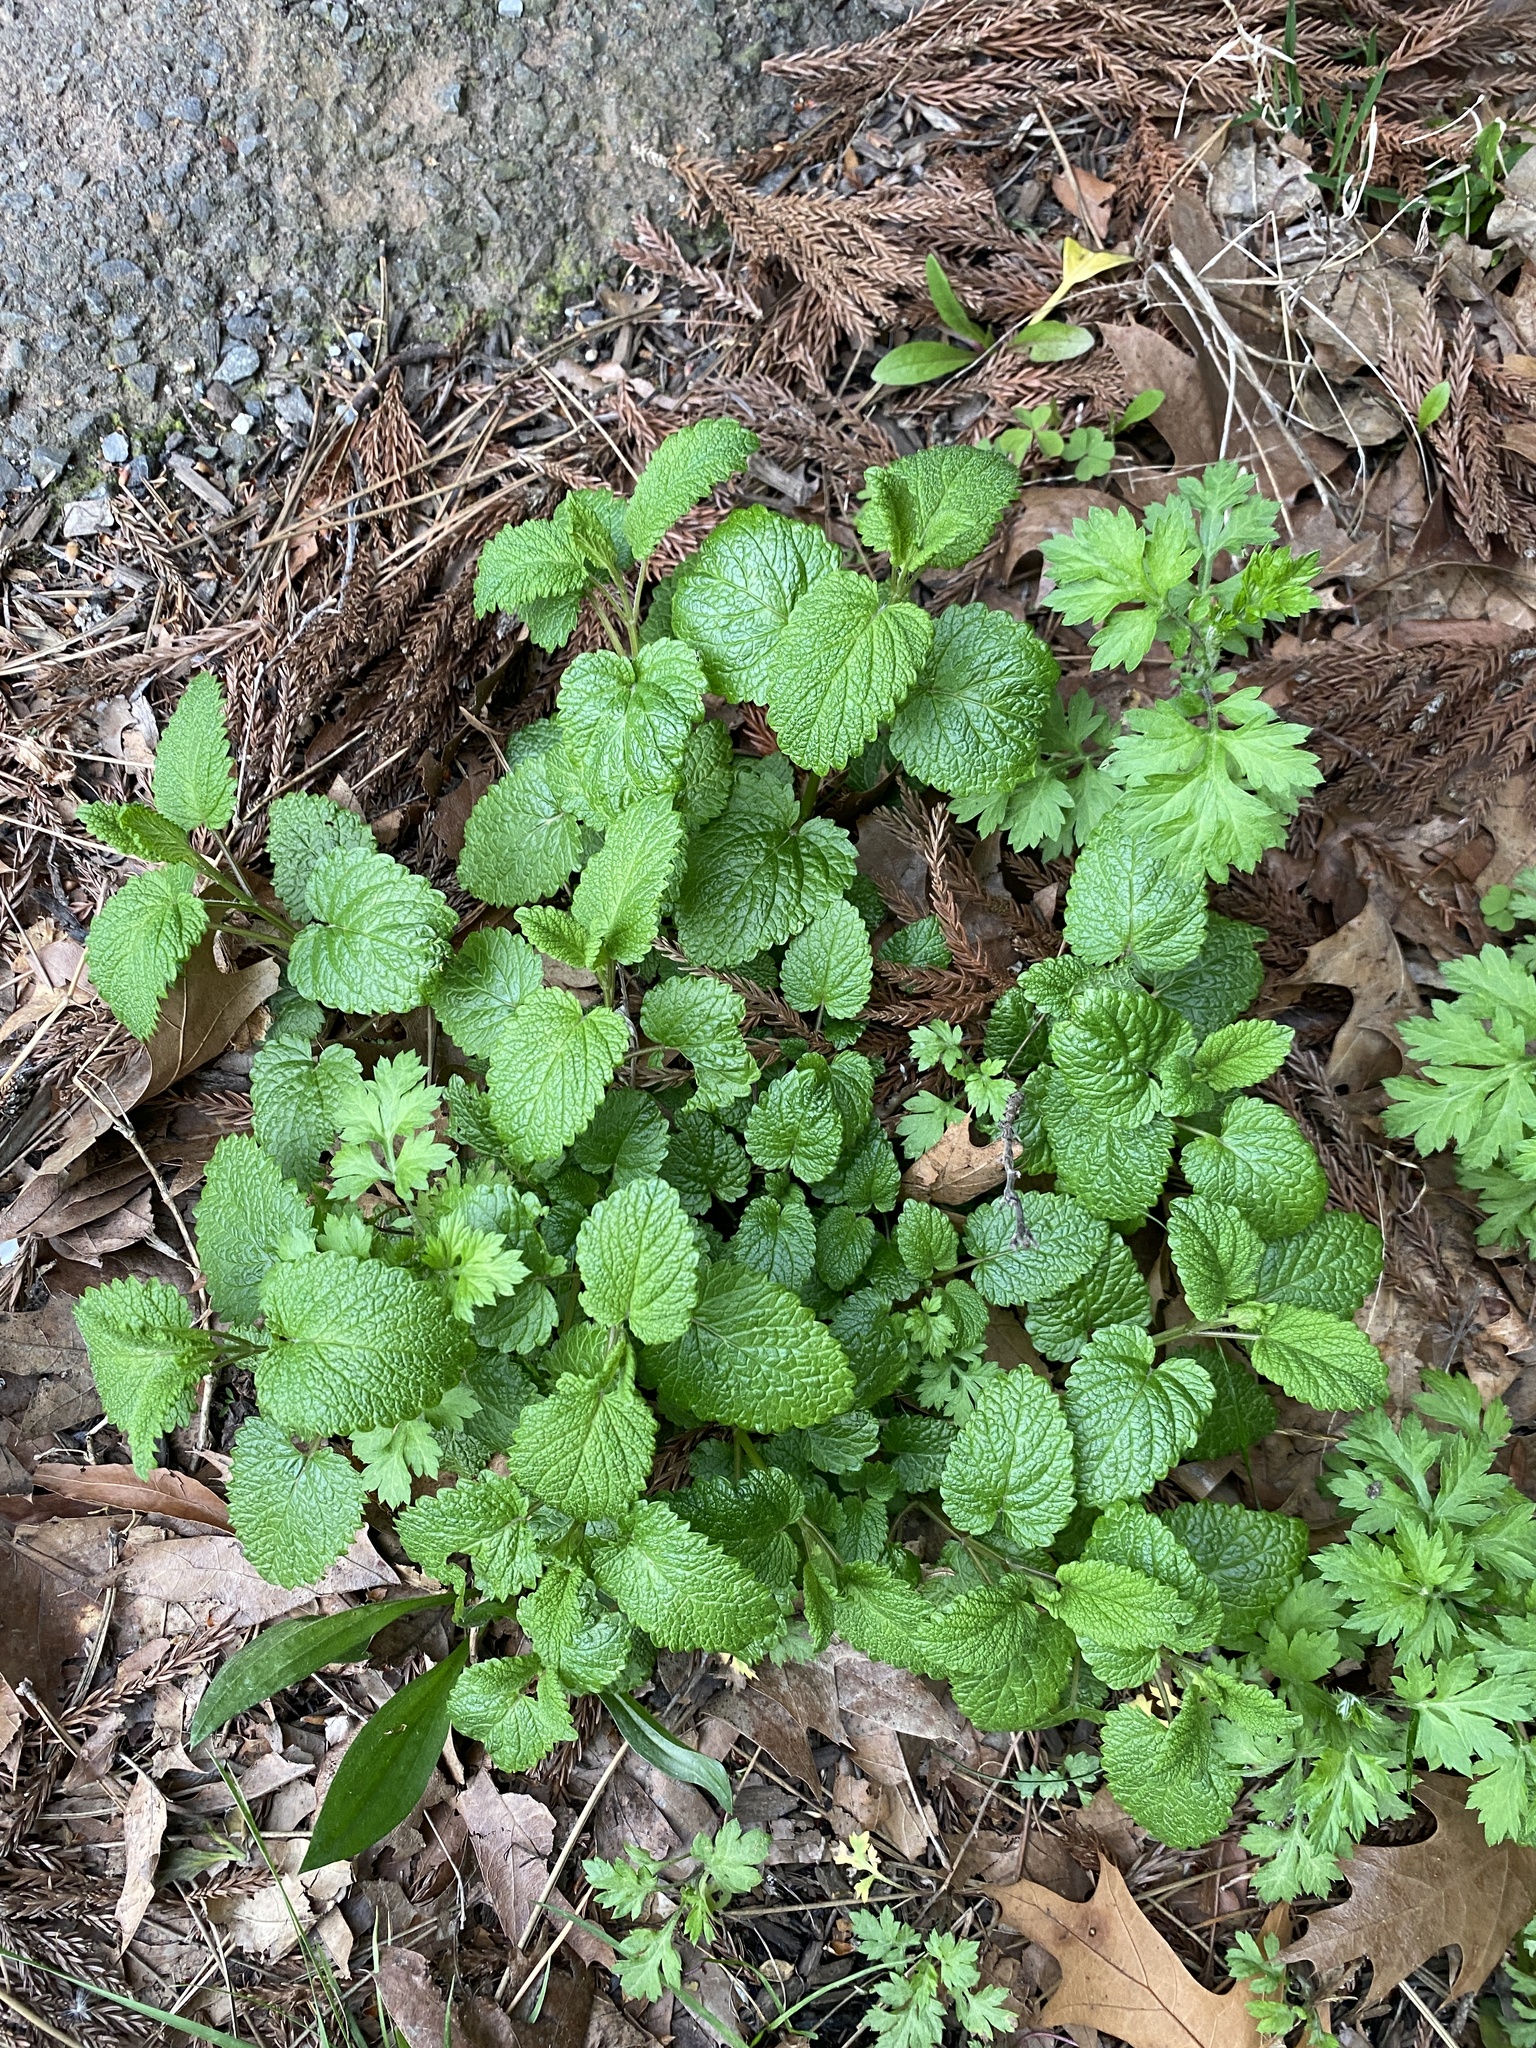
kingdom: Plantae
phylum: Tracheophyta
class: Magnoliopsida
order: Lamiales
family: Lamiaceae
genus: Melissa
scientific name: Melissa officinalis
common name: Balm
